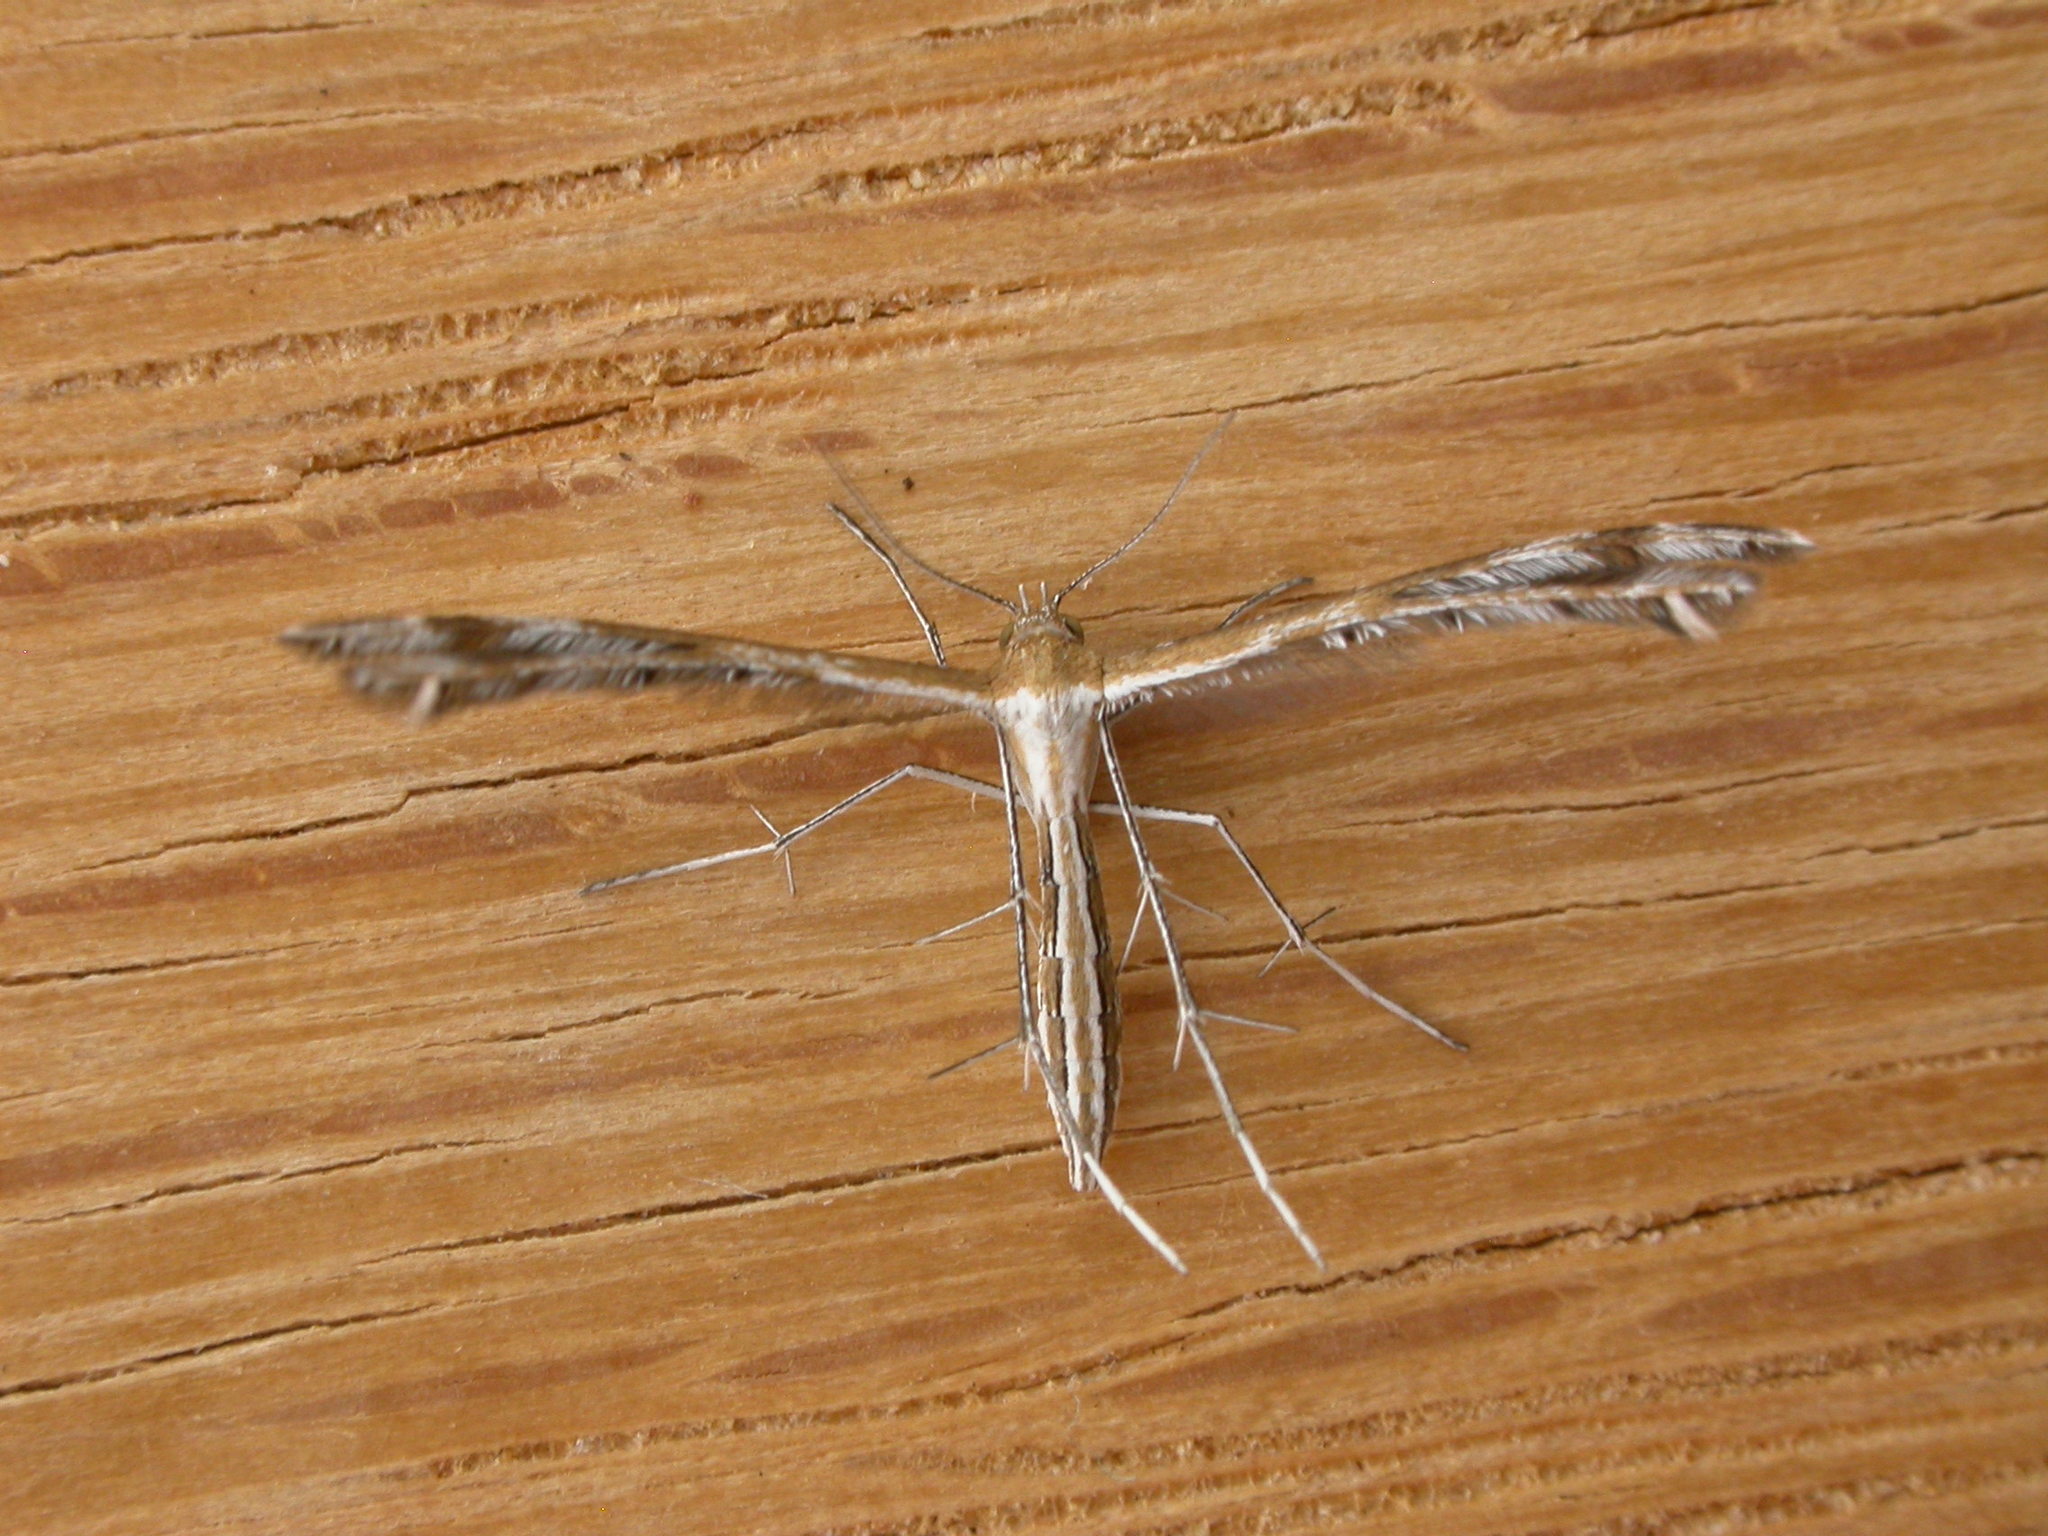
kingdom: Animalia
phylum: Arthropoda
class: Insecta
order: Lepidoptera
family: Pterophoridae
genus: Stangeia
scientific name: Stangeia xerodes
